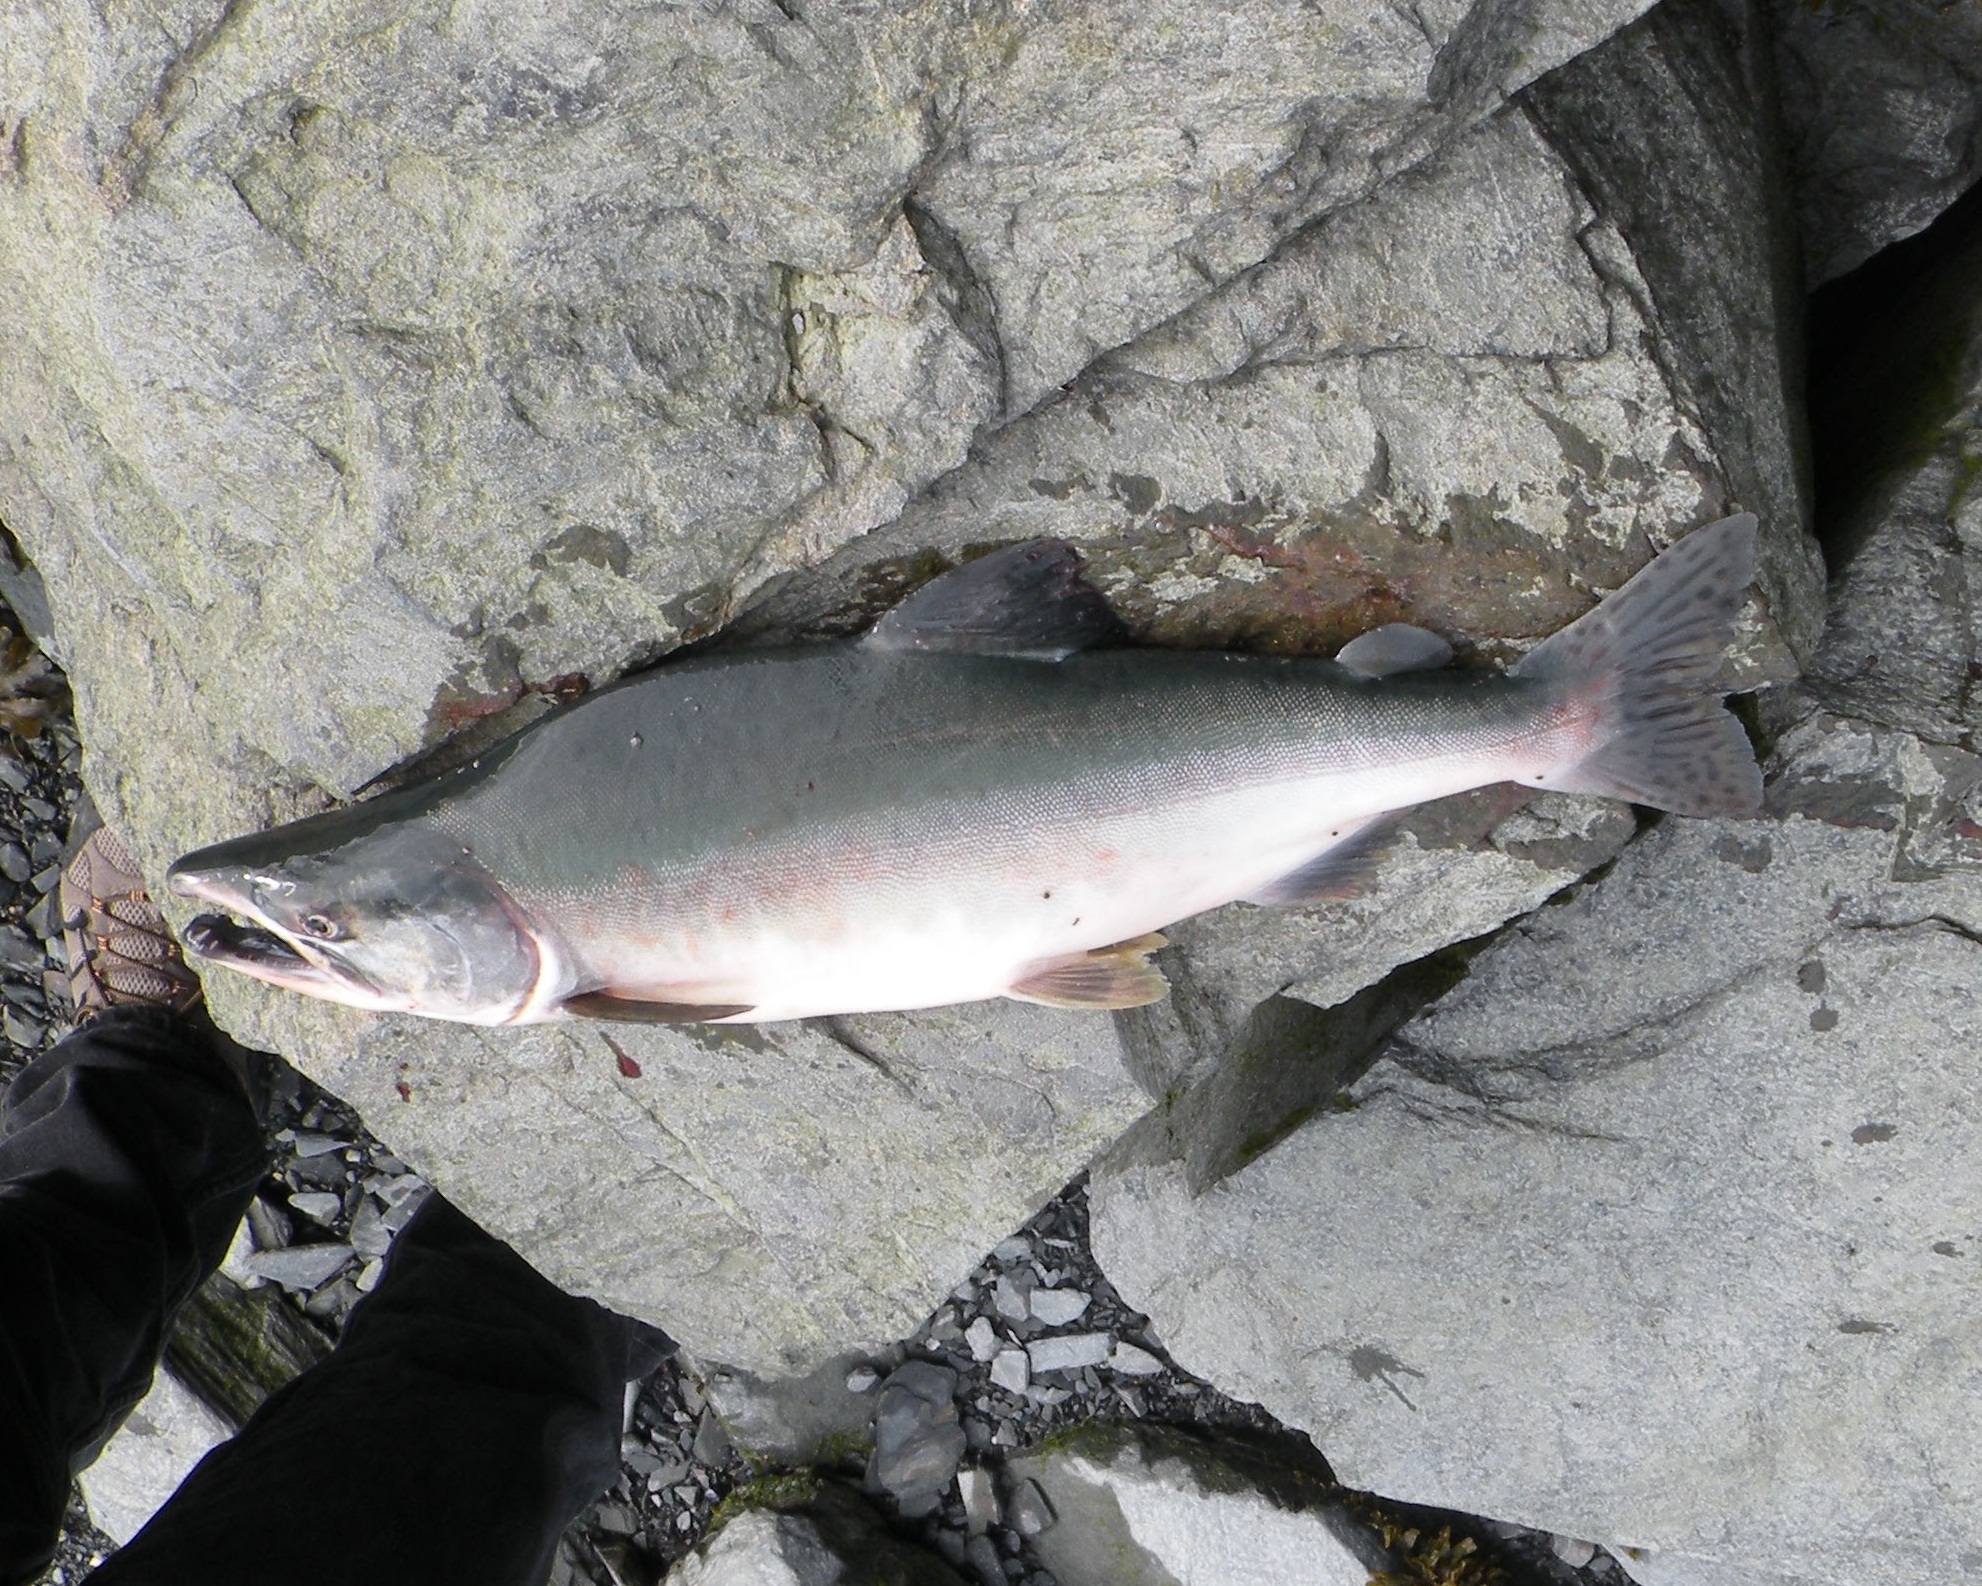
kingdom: Animalia
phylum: Chordata
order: Salmoniformes
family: Salmonidae
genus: Oncorhynchus
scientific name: Oncorhynchus gorbuscha
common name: Humpback salmon
